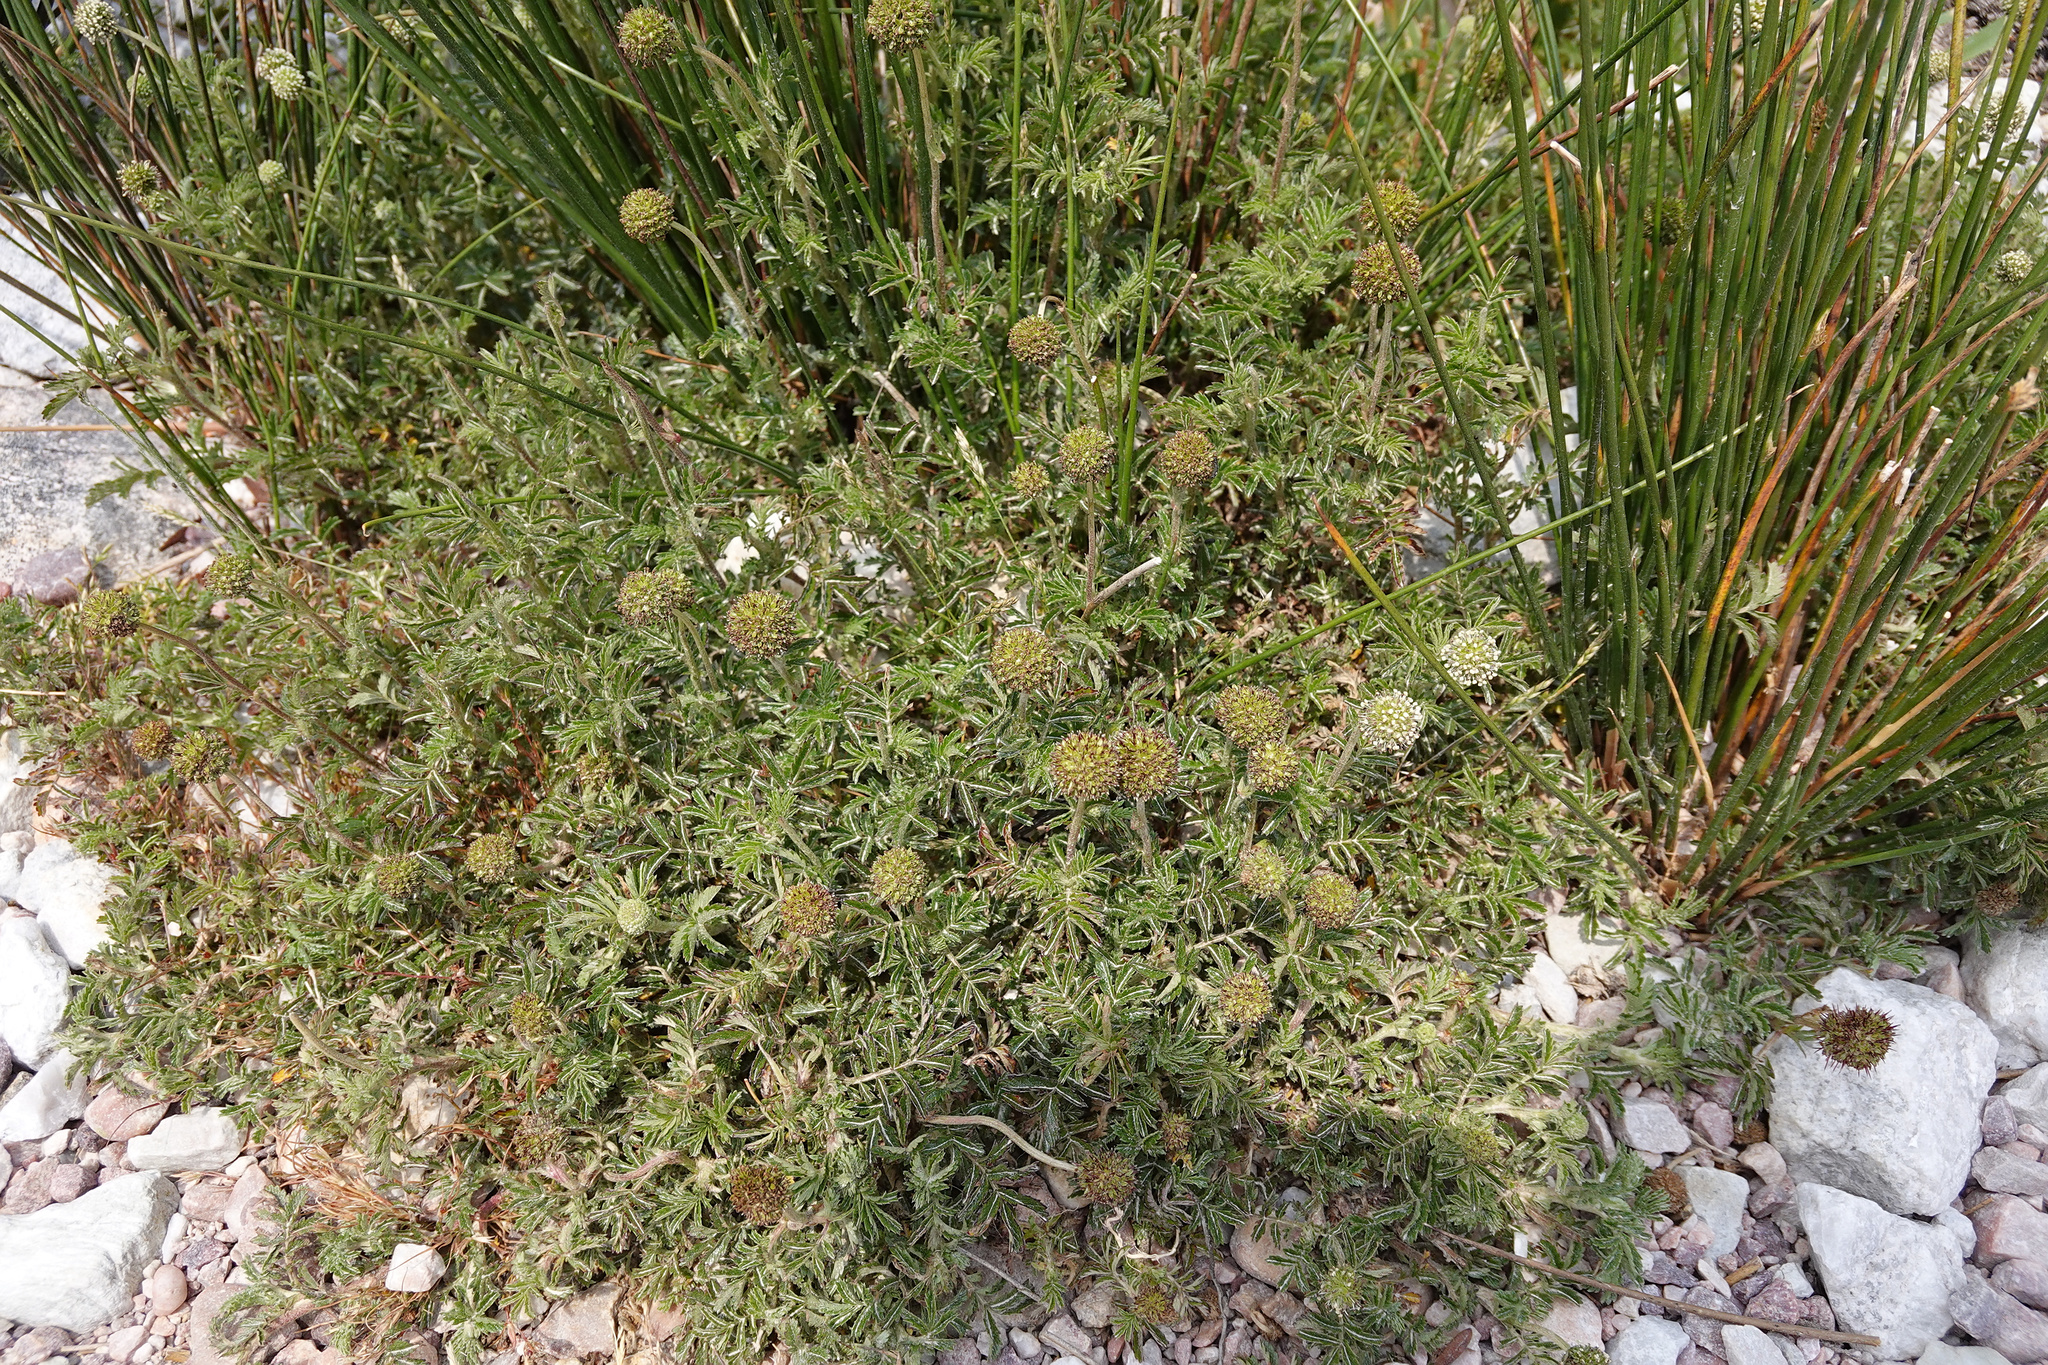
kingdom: Plantae
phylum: Tracheophyta
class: Magnoliopsida
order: Rosales
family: Rosaceae
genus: Acaena
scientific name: Acaena novae-zelandiae
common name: Pirri-pirri-bur
